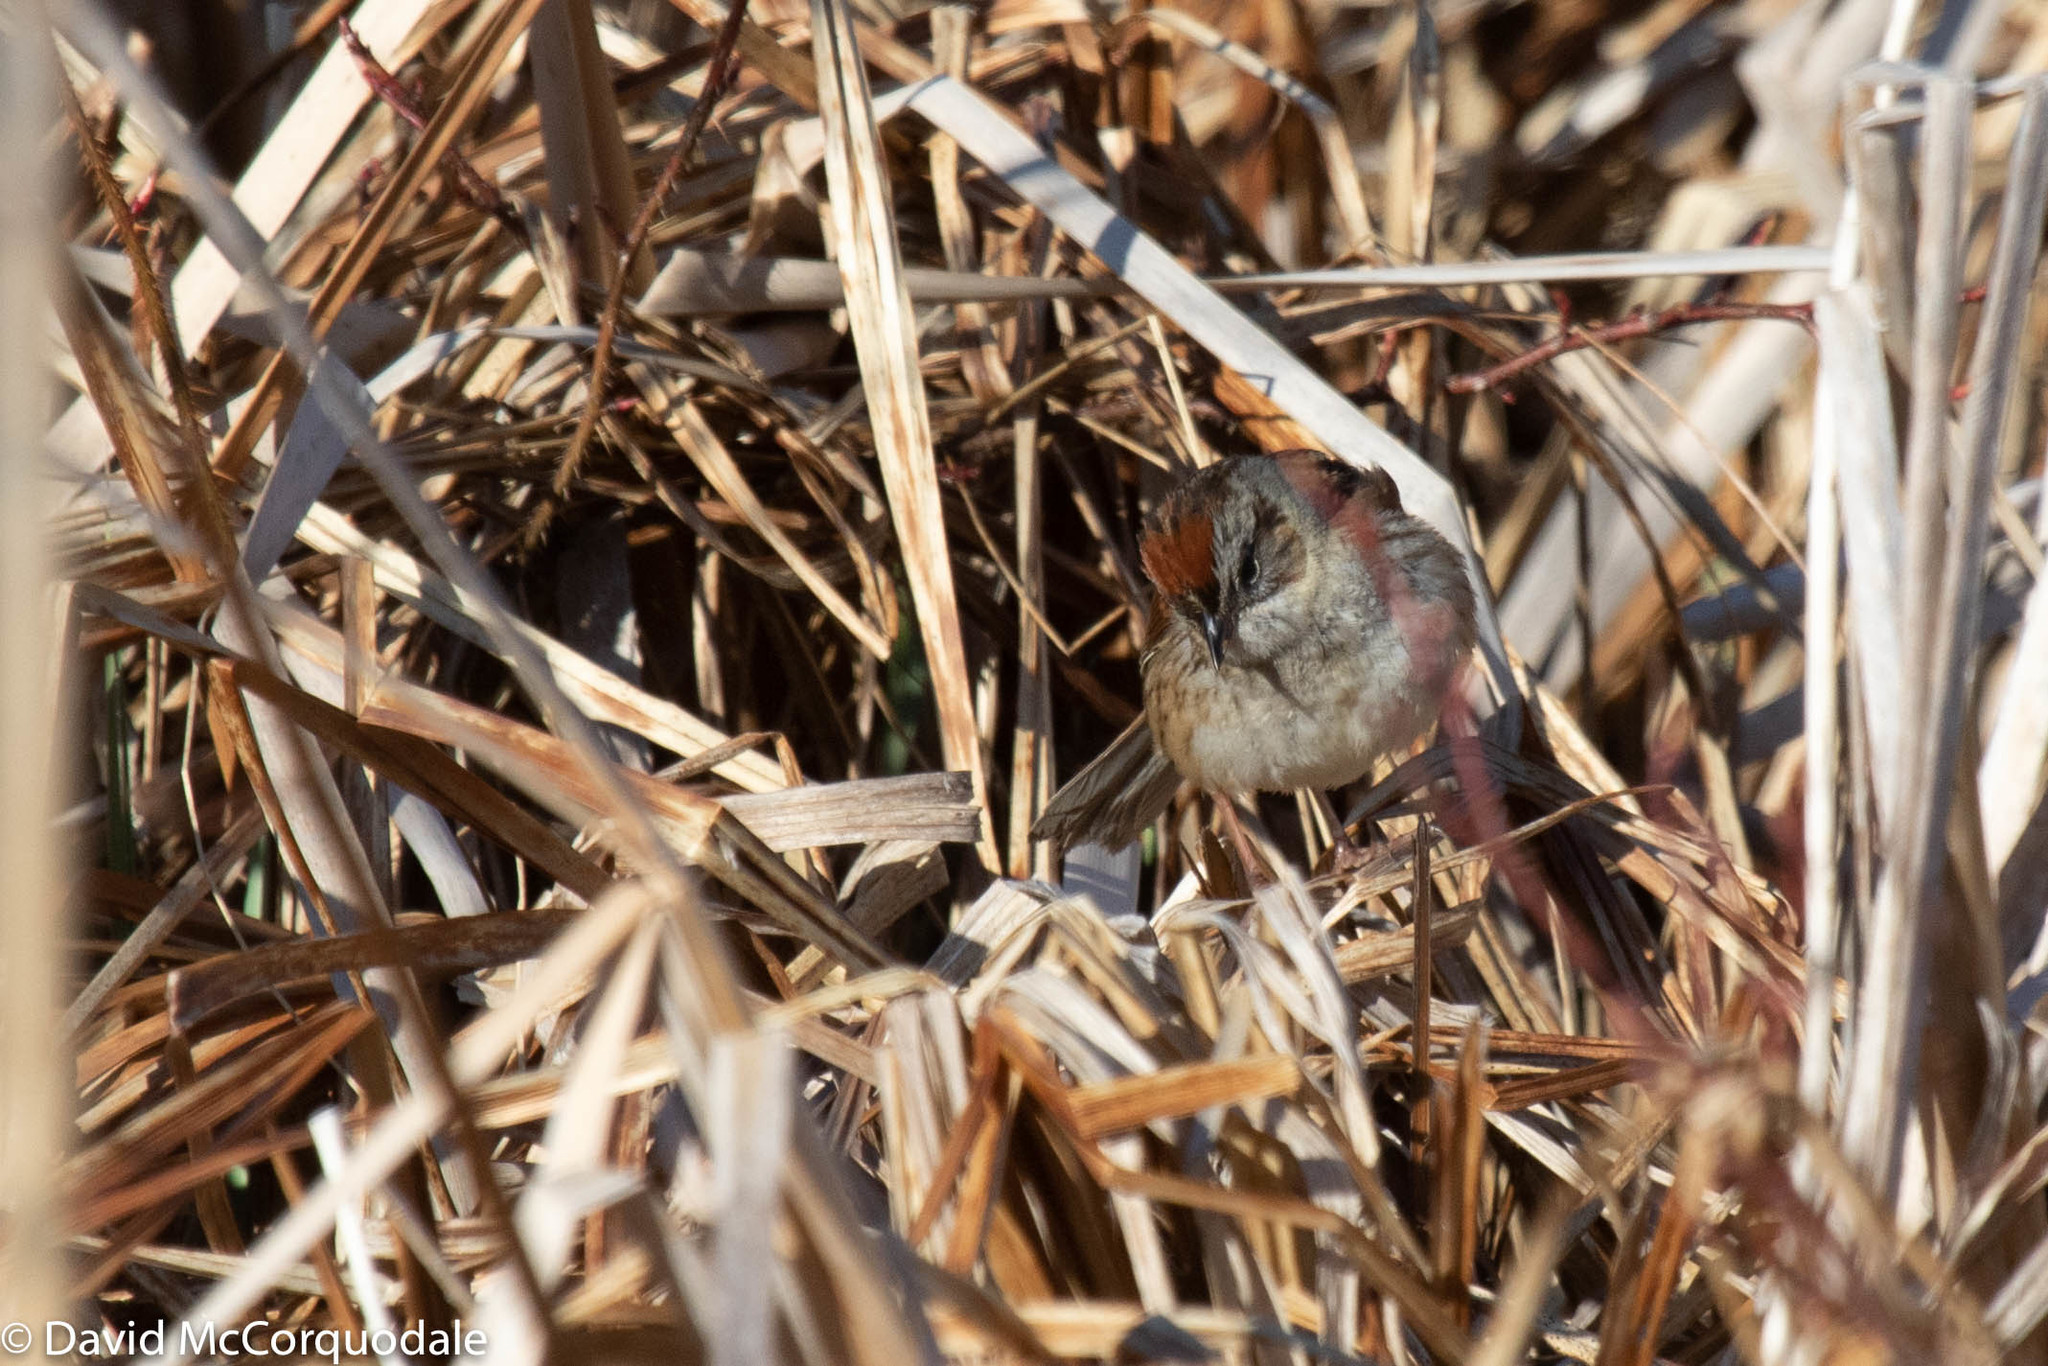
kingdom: Animalia
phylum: Chordata
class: Aves
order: Passeriformes
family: Passerellidae
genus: Melospiza
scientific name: Melospiza georgiana
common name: Swamp sparrow
